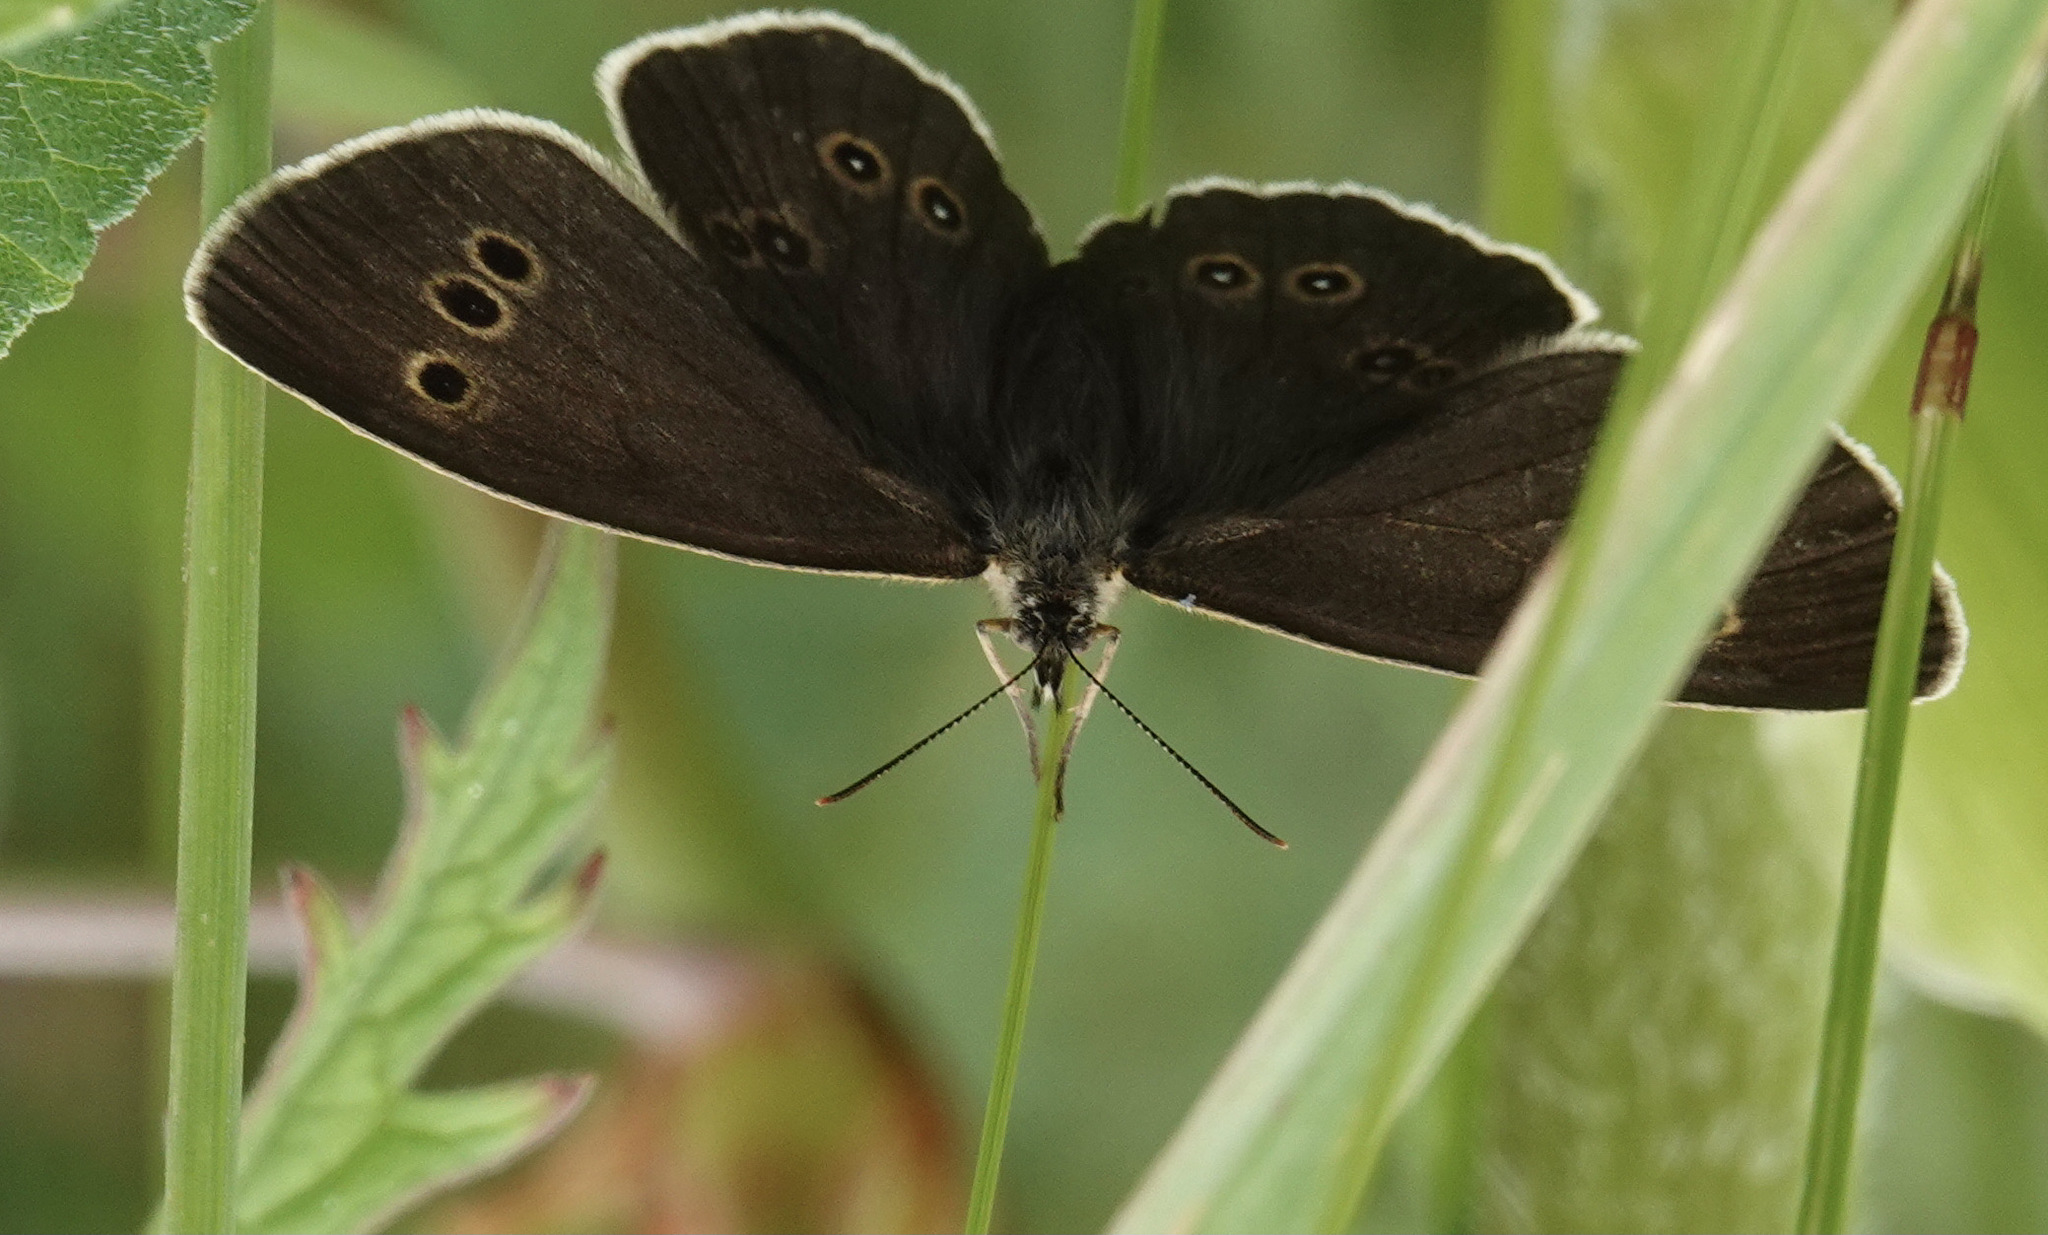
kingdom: Animalia
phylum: Arthropoda
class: Insecta
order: Lepidoptera
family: Nymphalidae
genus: Aphantopus
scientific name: Aphantopus hyperantus
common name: Ringlet
